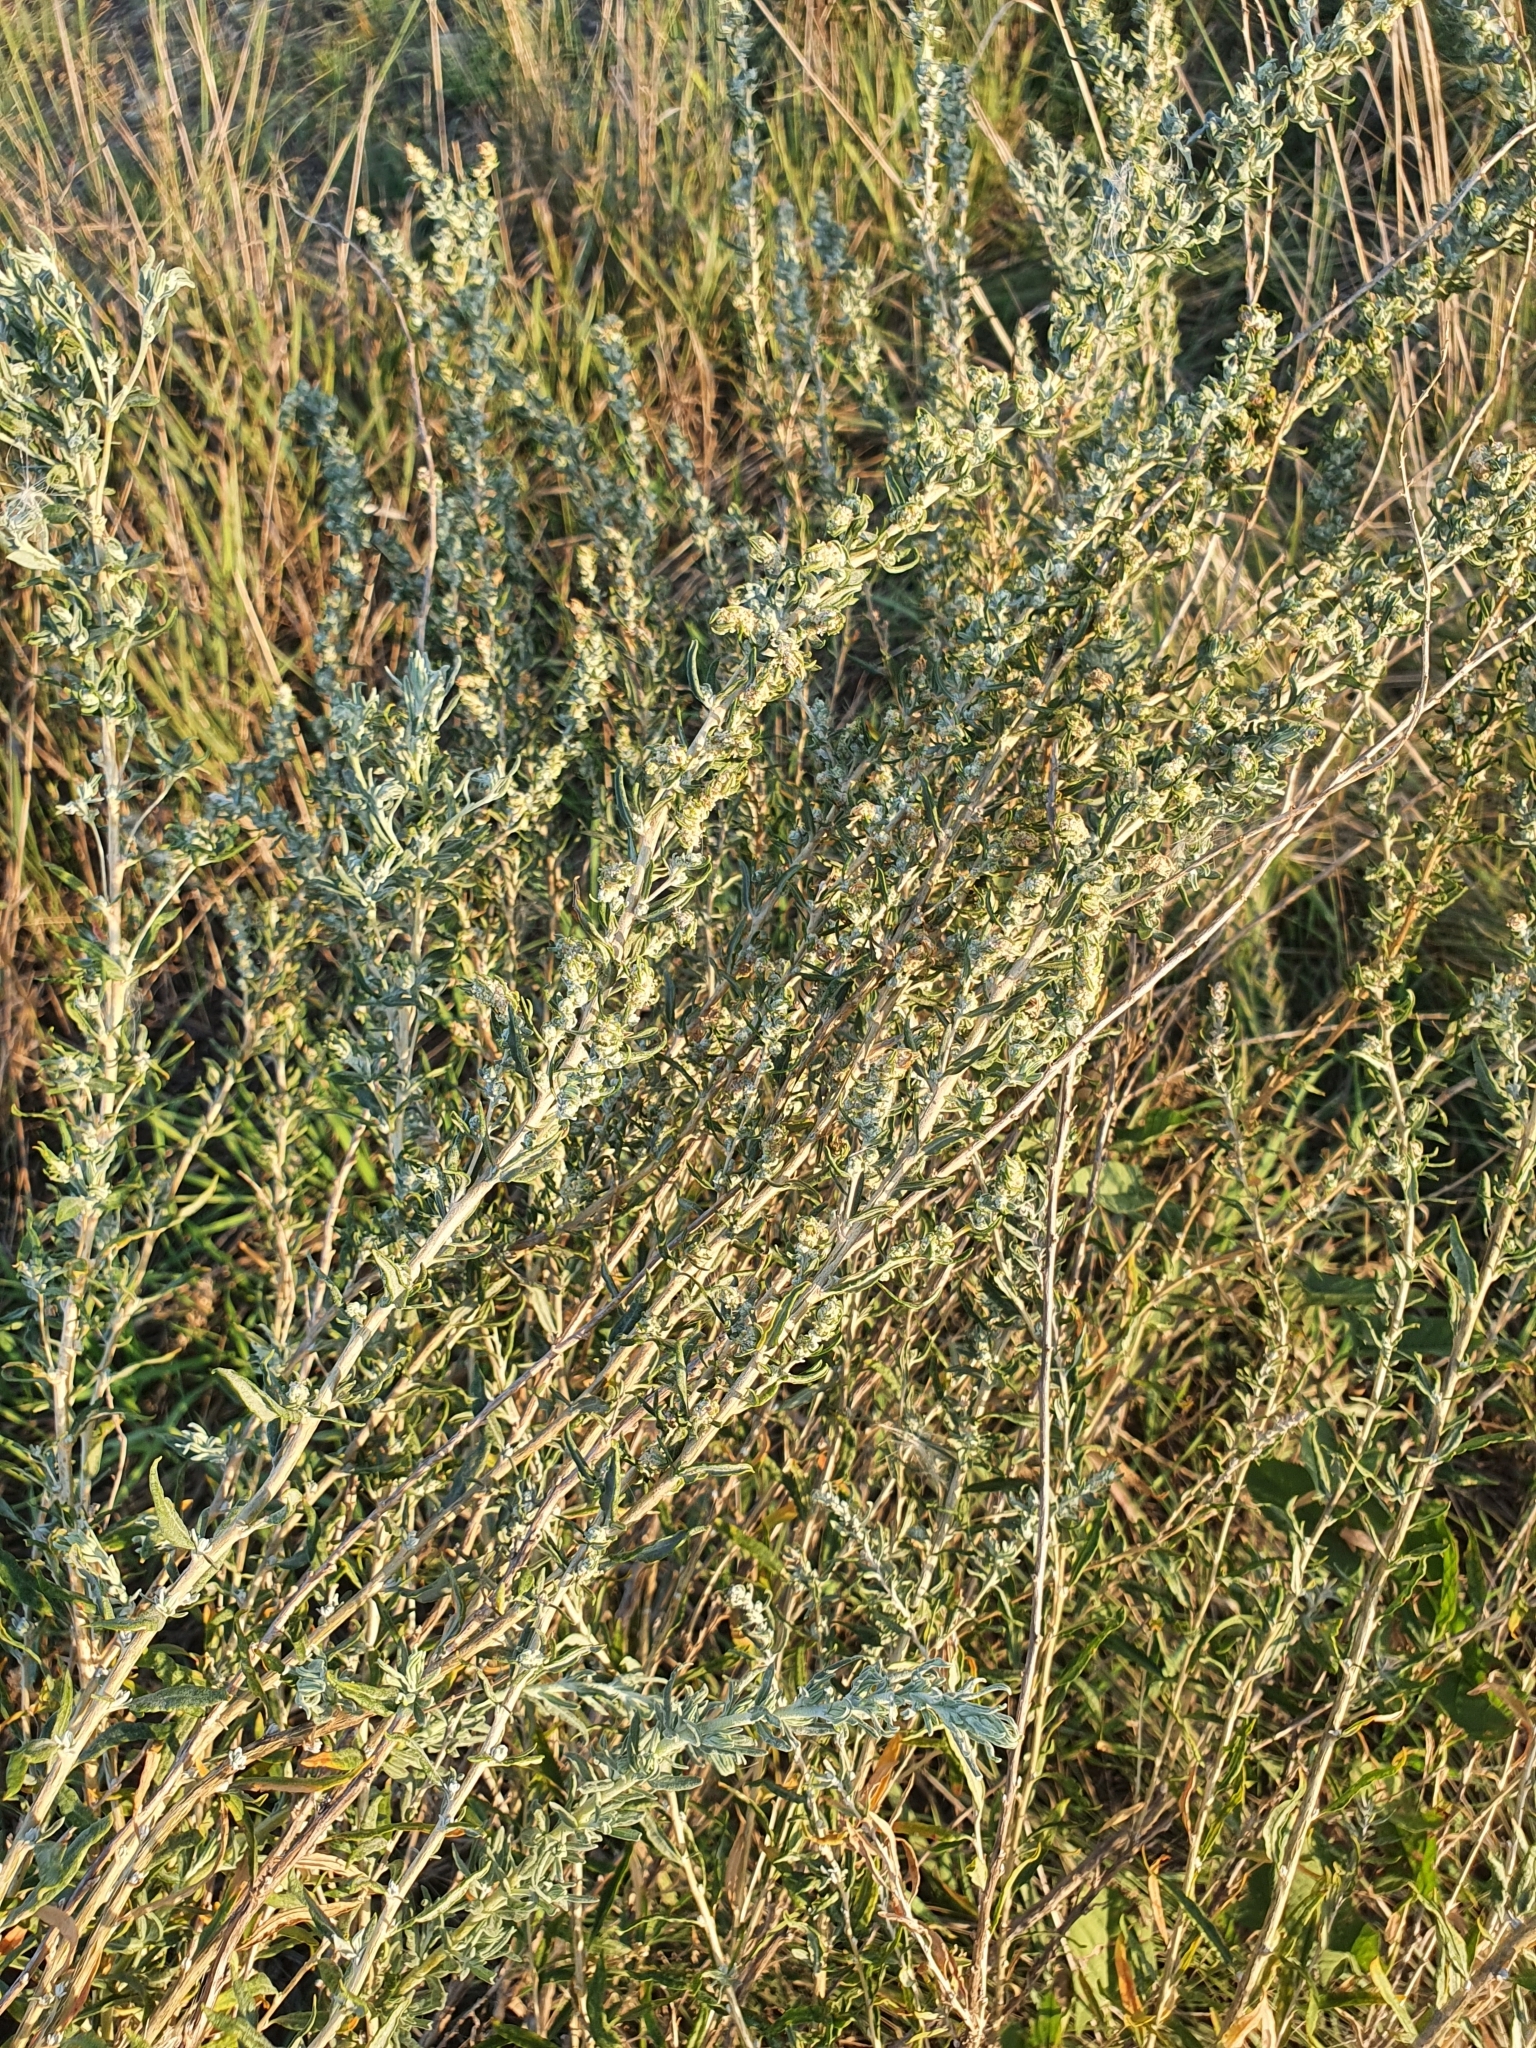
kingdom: Plantae
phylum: Tracheophyta
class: Magnoliopsida
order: Caryophyllales
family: Amaranthaceae
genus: Krascheninnikovia
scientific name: Krascheninnikovia ceratoides
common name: Pamirian winterfat
